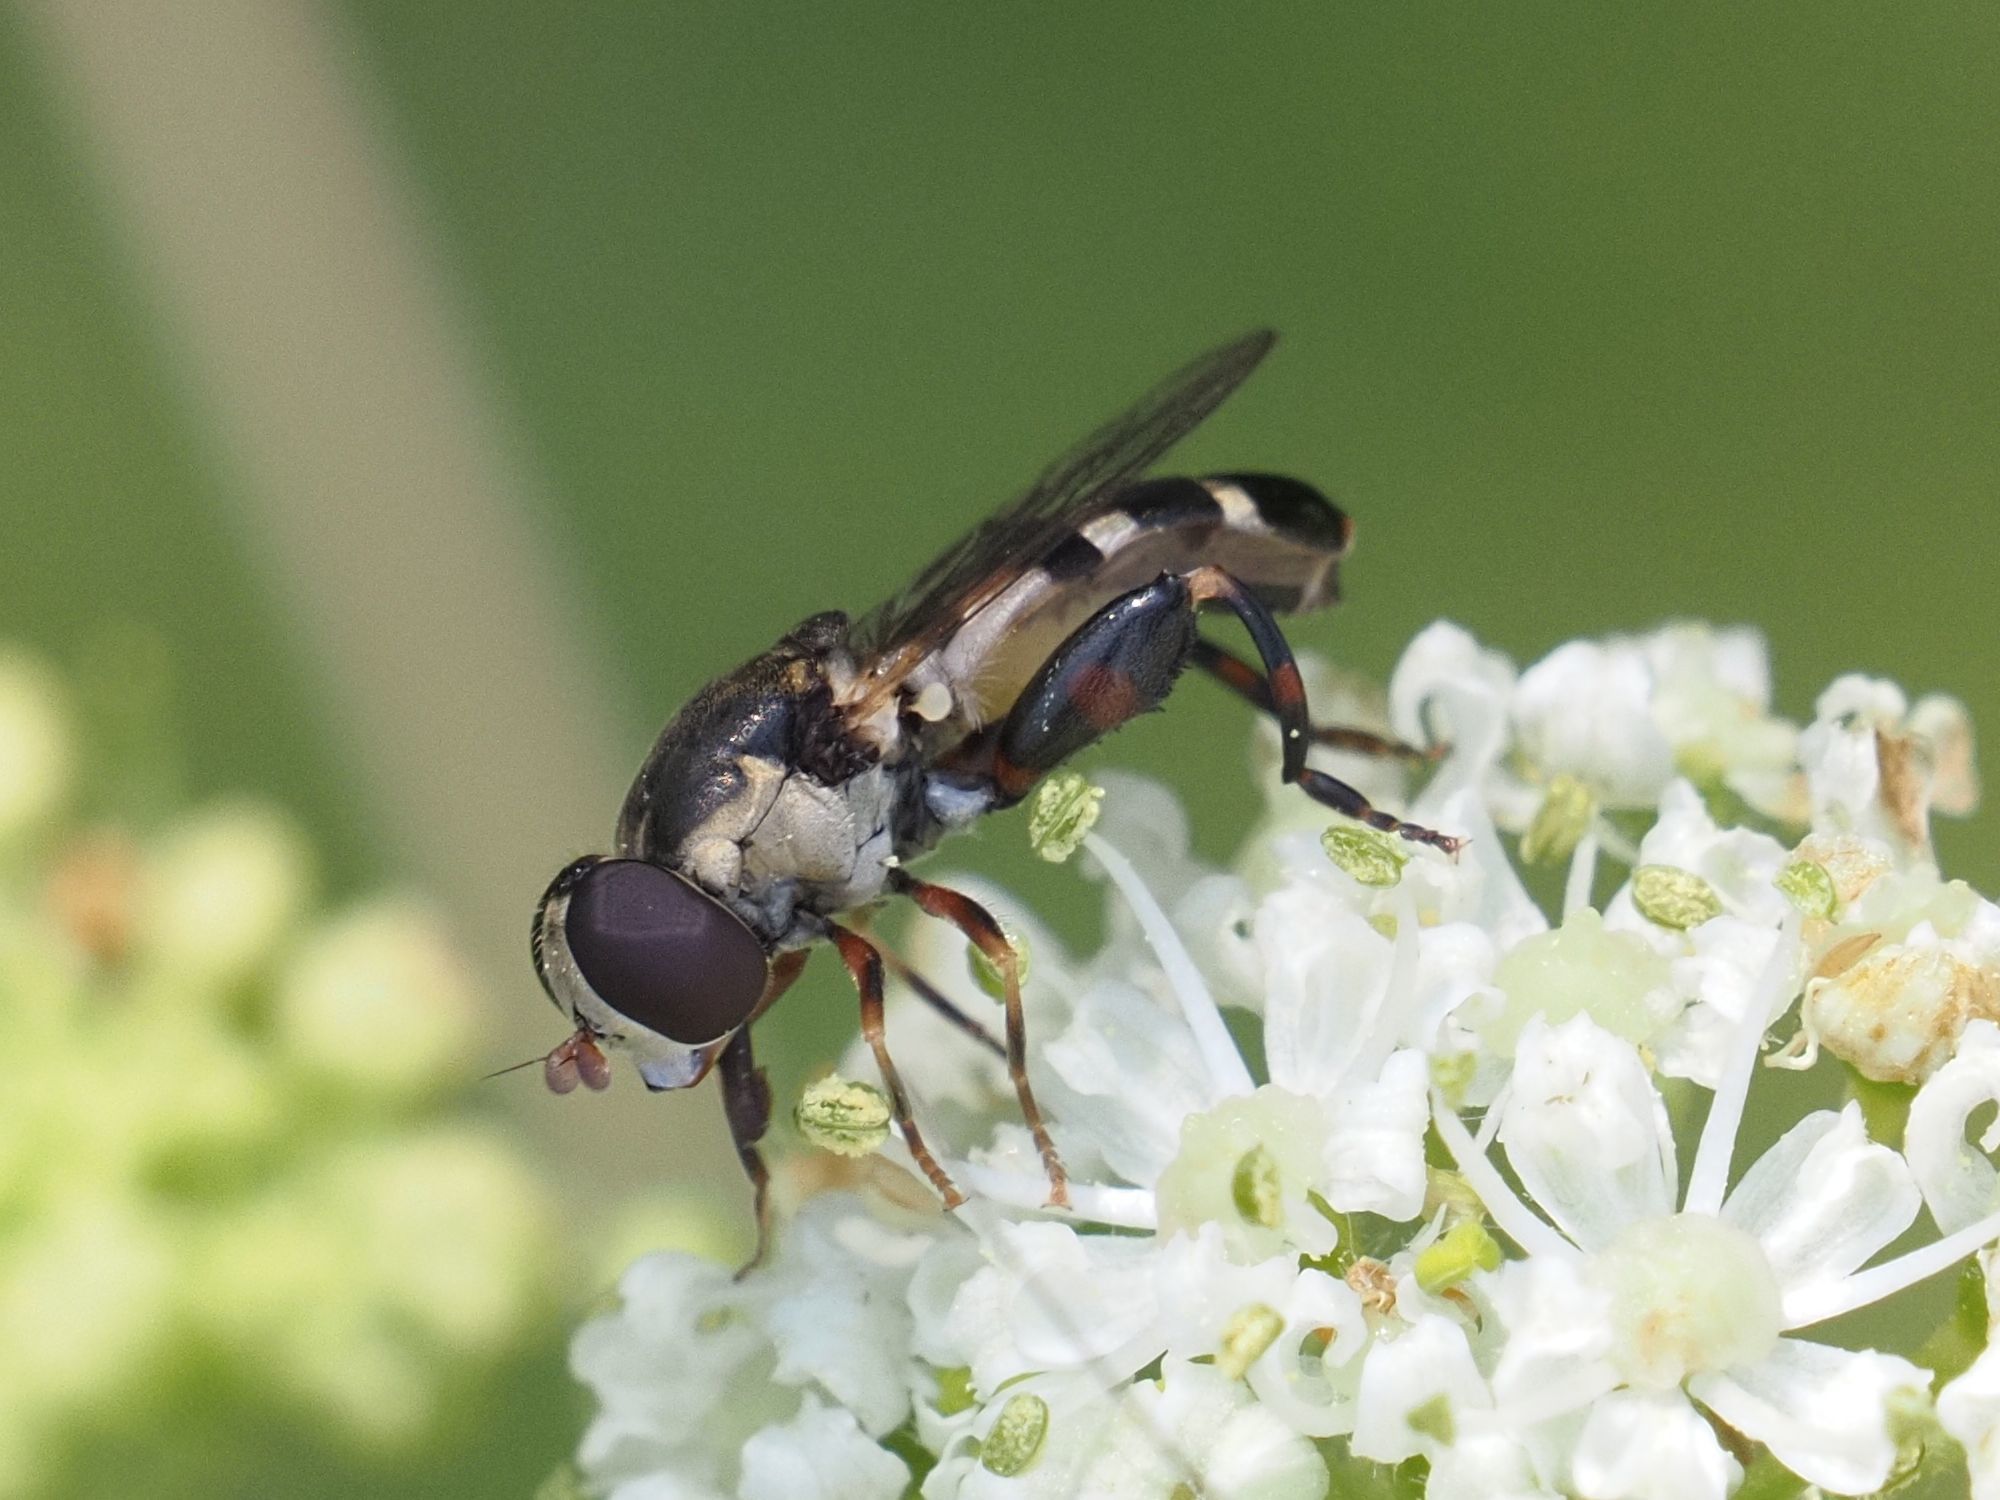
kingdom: Animalia
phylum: Arthropoda
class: Insecta
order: Diptera
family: Syrphidae
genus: Syritta
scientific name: Syritta pipiens
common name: Hover fly
